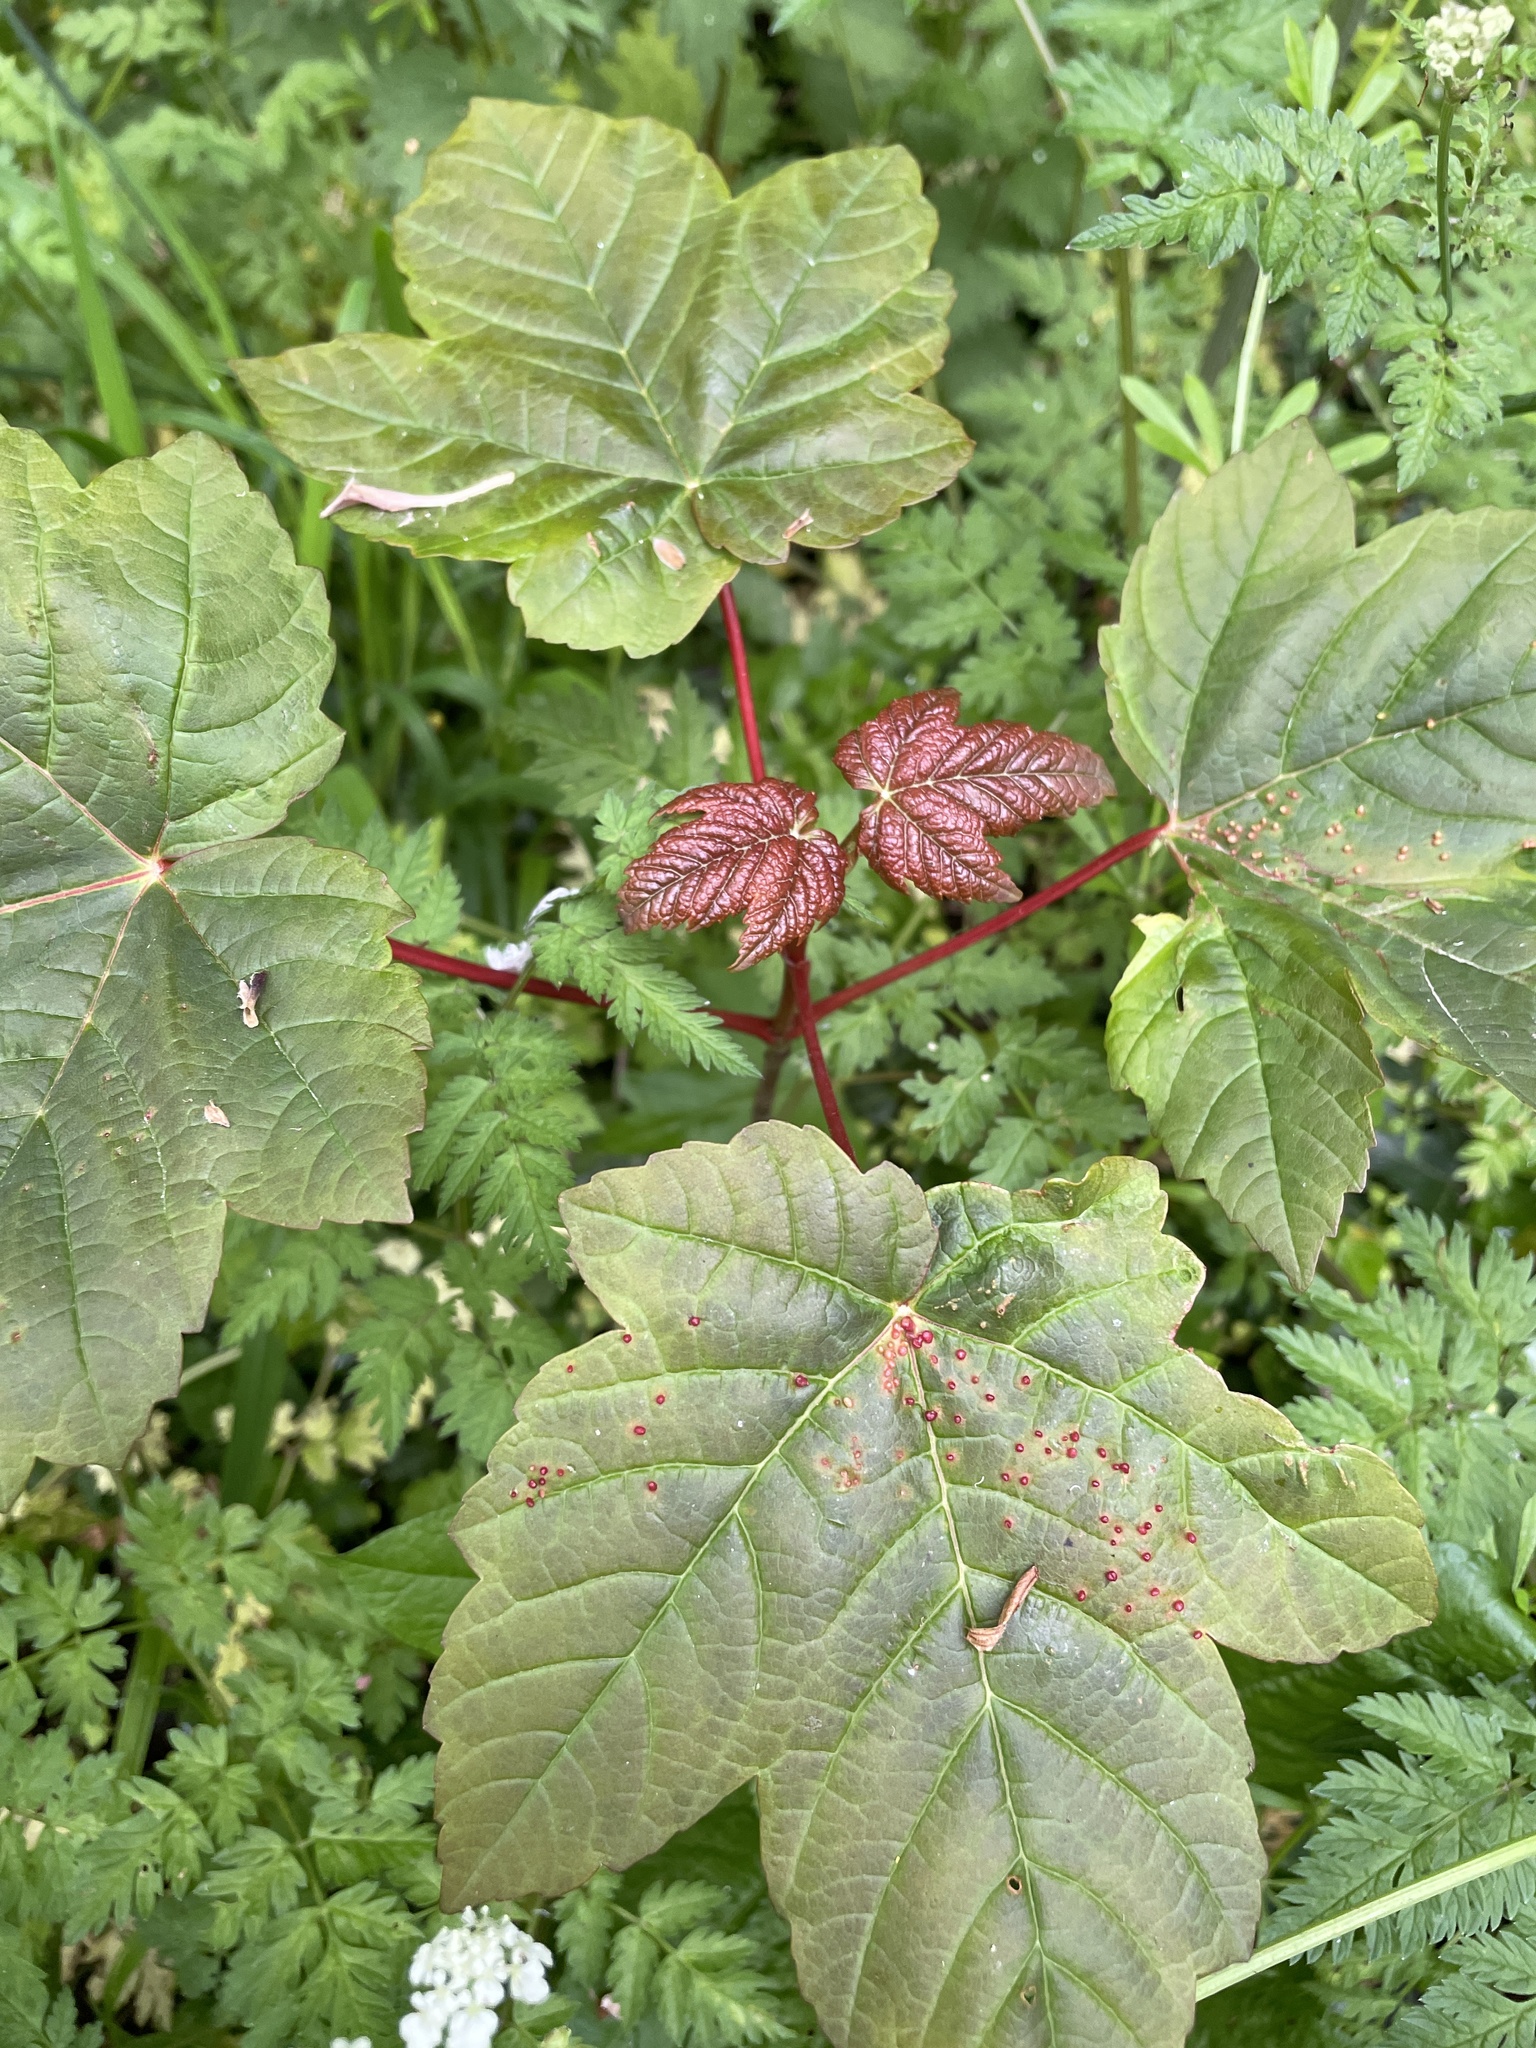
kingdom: Plantae
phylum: Tracheophyta
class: Magnoliopsida
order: Sapindales
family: Sapindaceae
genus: Acer
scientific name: Acer pseudoplatanus
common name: Sycamore
